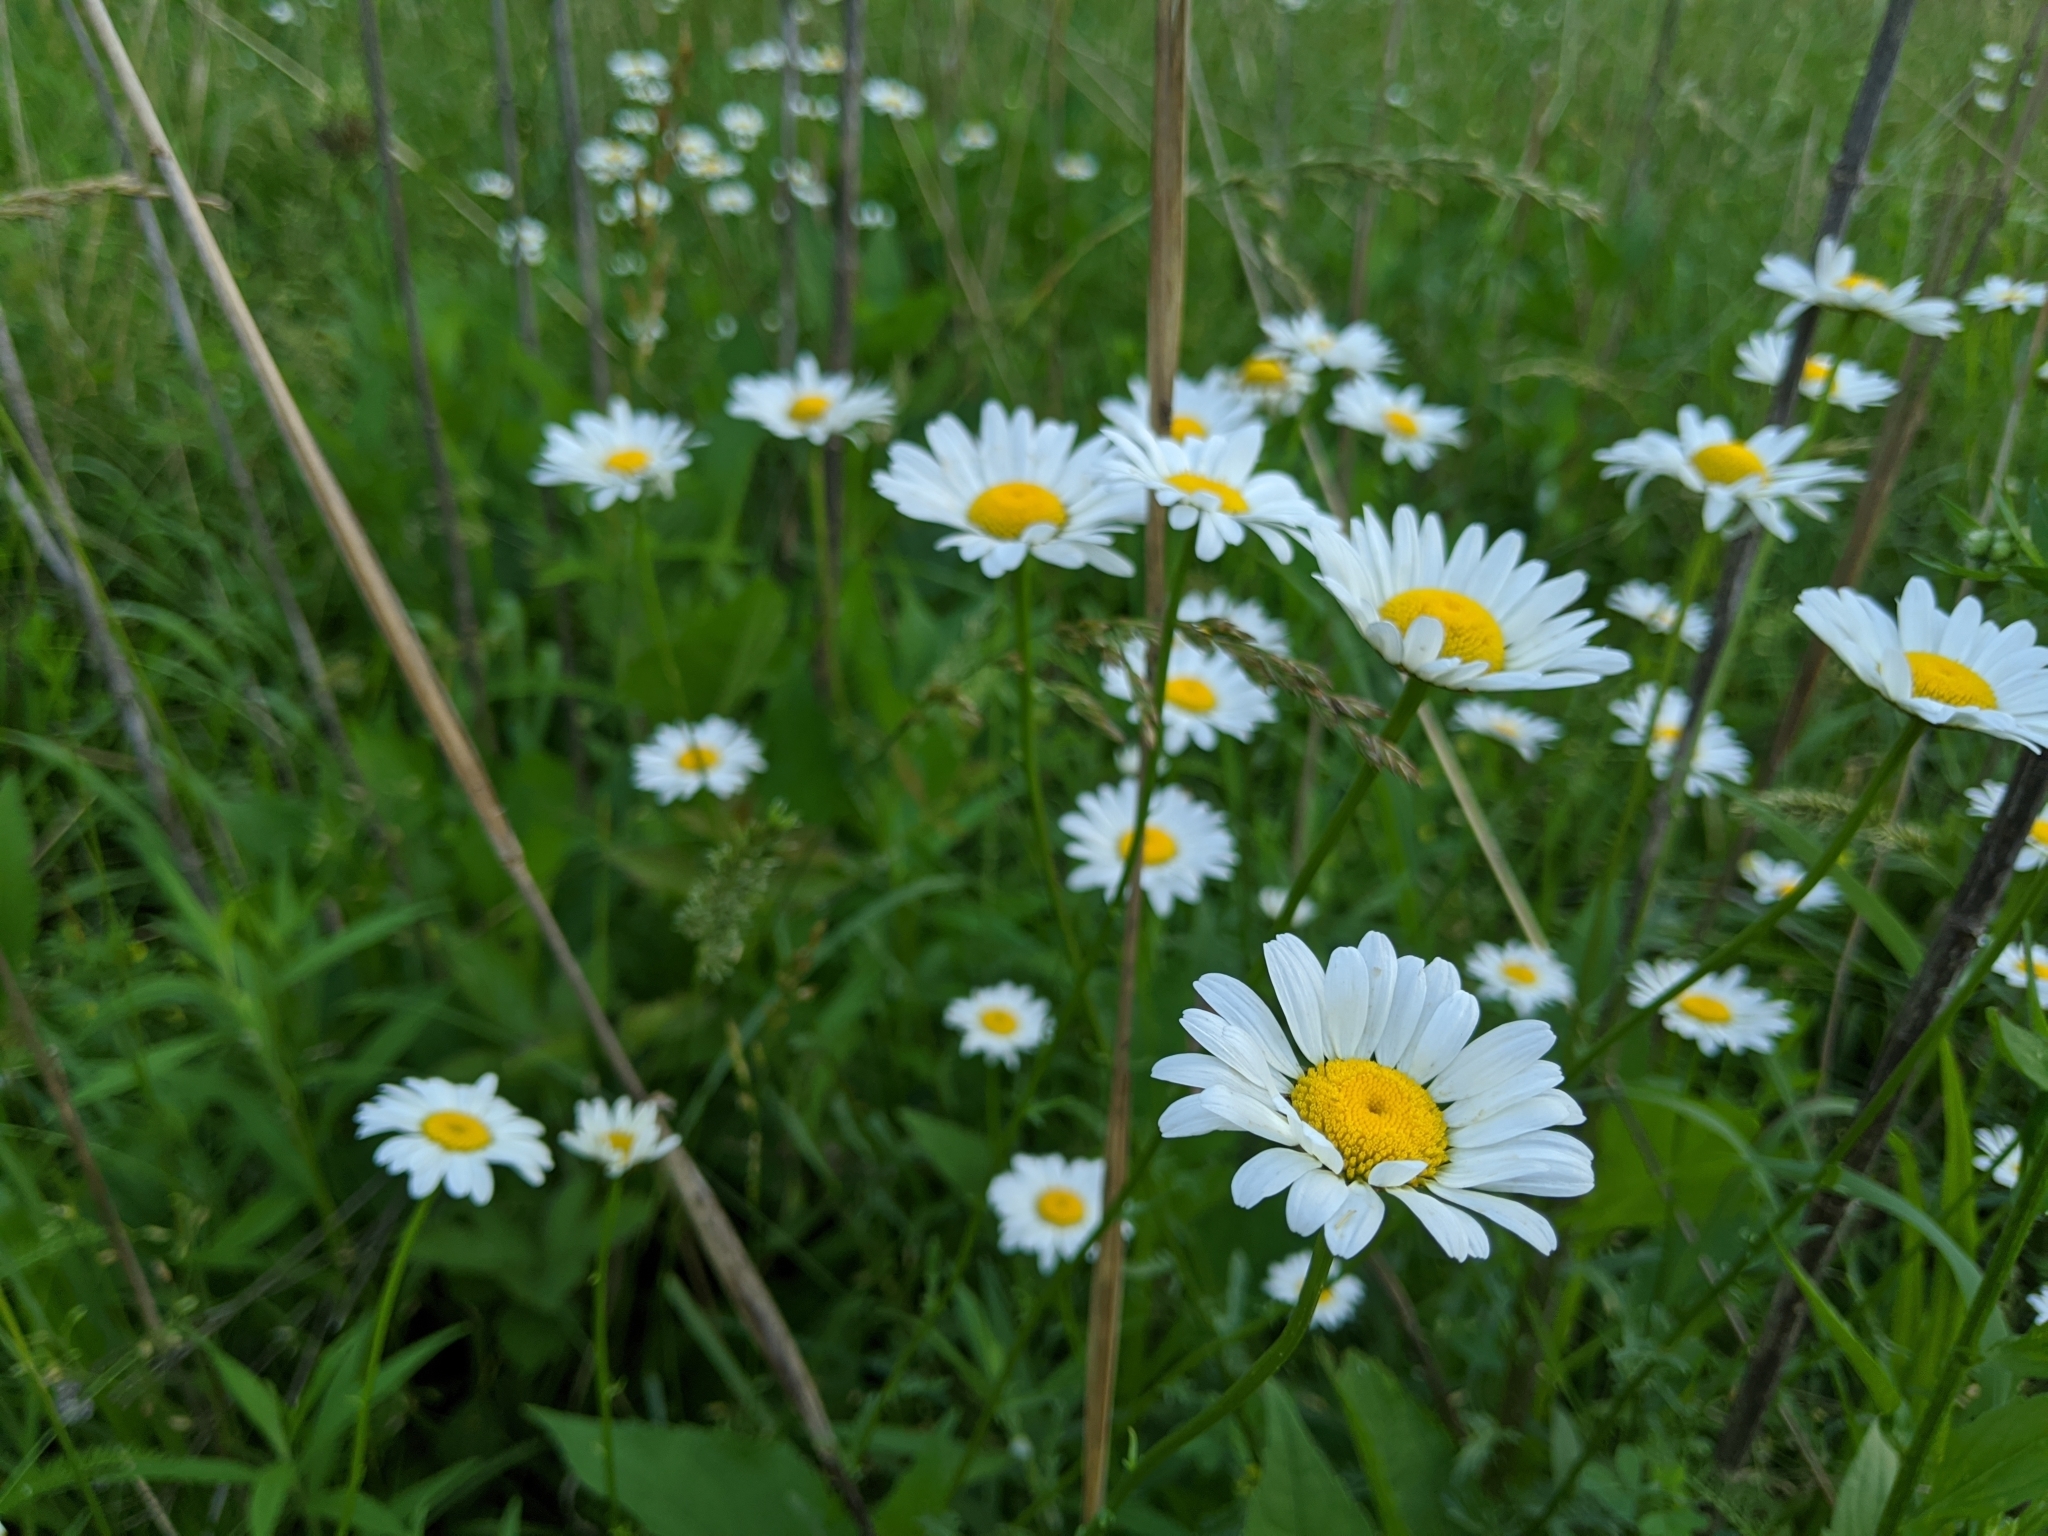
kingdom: Plantae
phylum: Tracheophyta
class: Magnoliopsida
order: Asterales
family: Asteraceae
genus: Leucanthemum
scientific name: Leucanthemum vulgare
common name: Oxeye daisy
